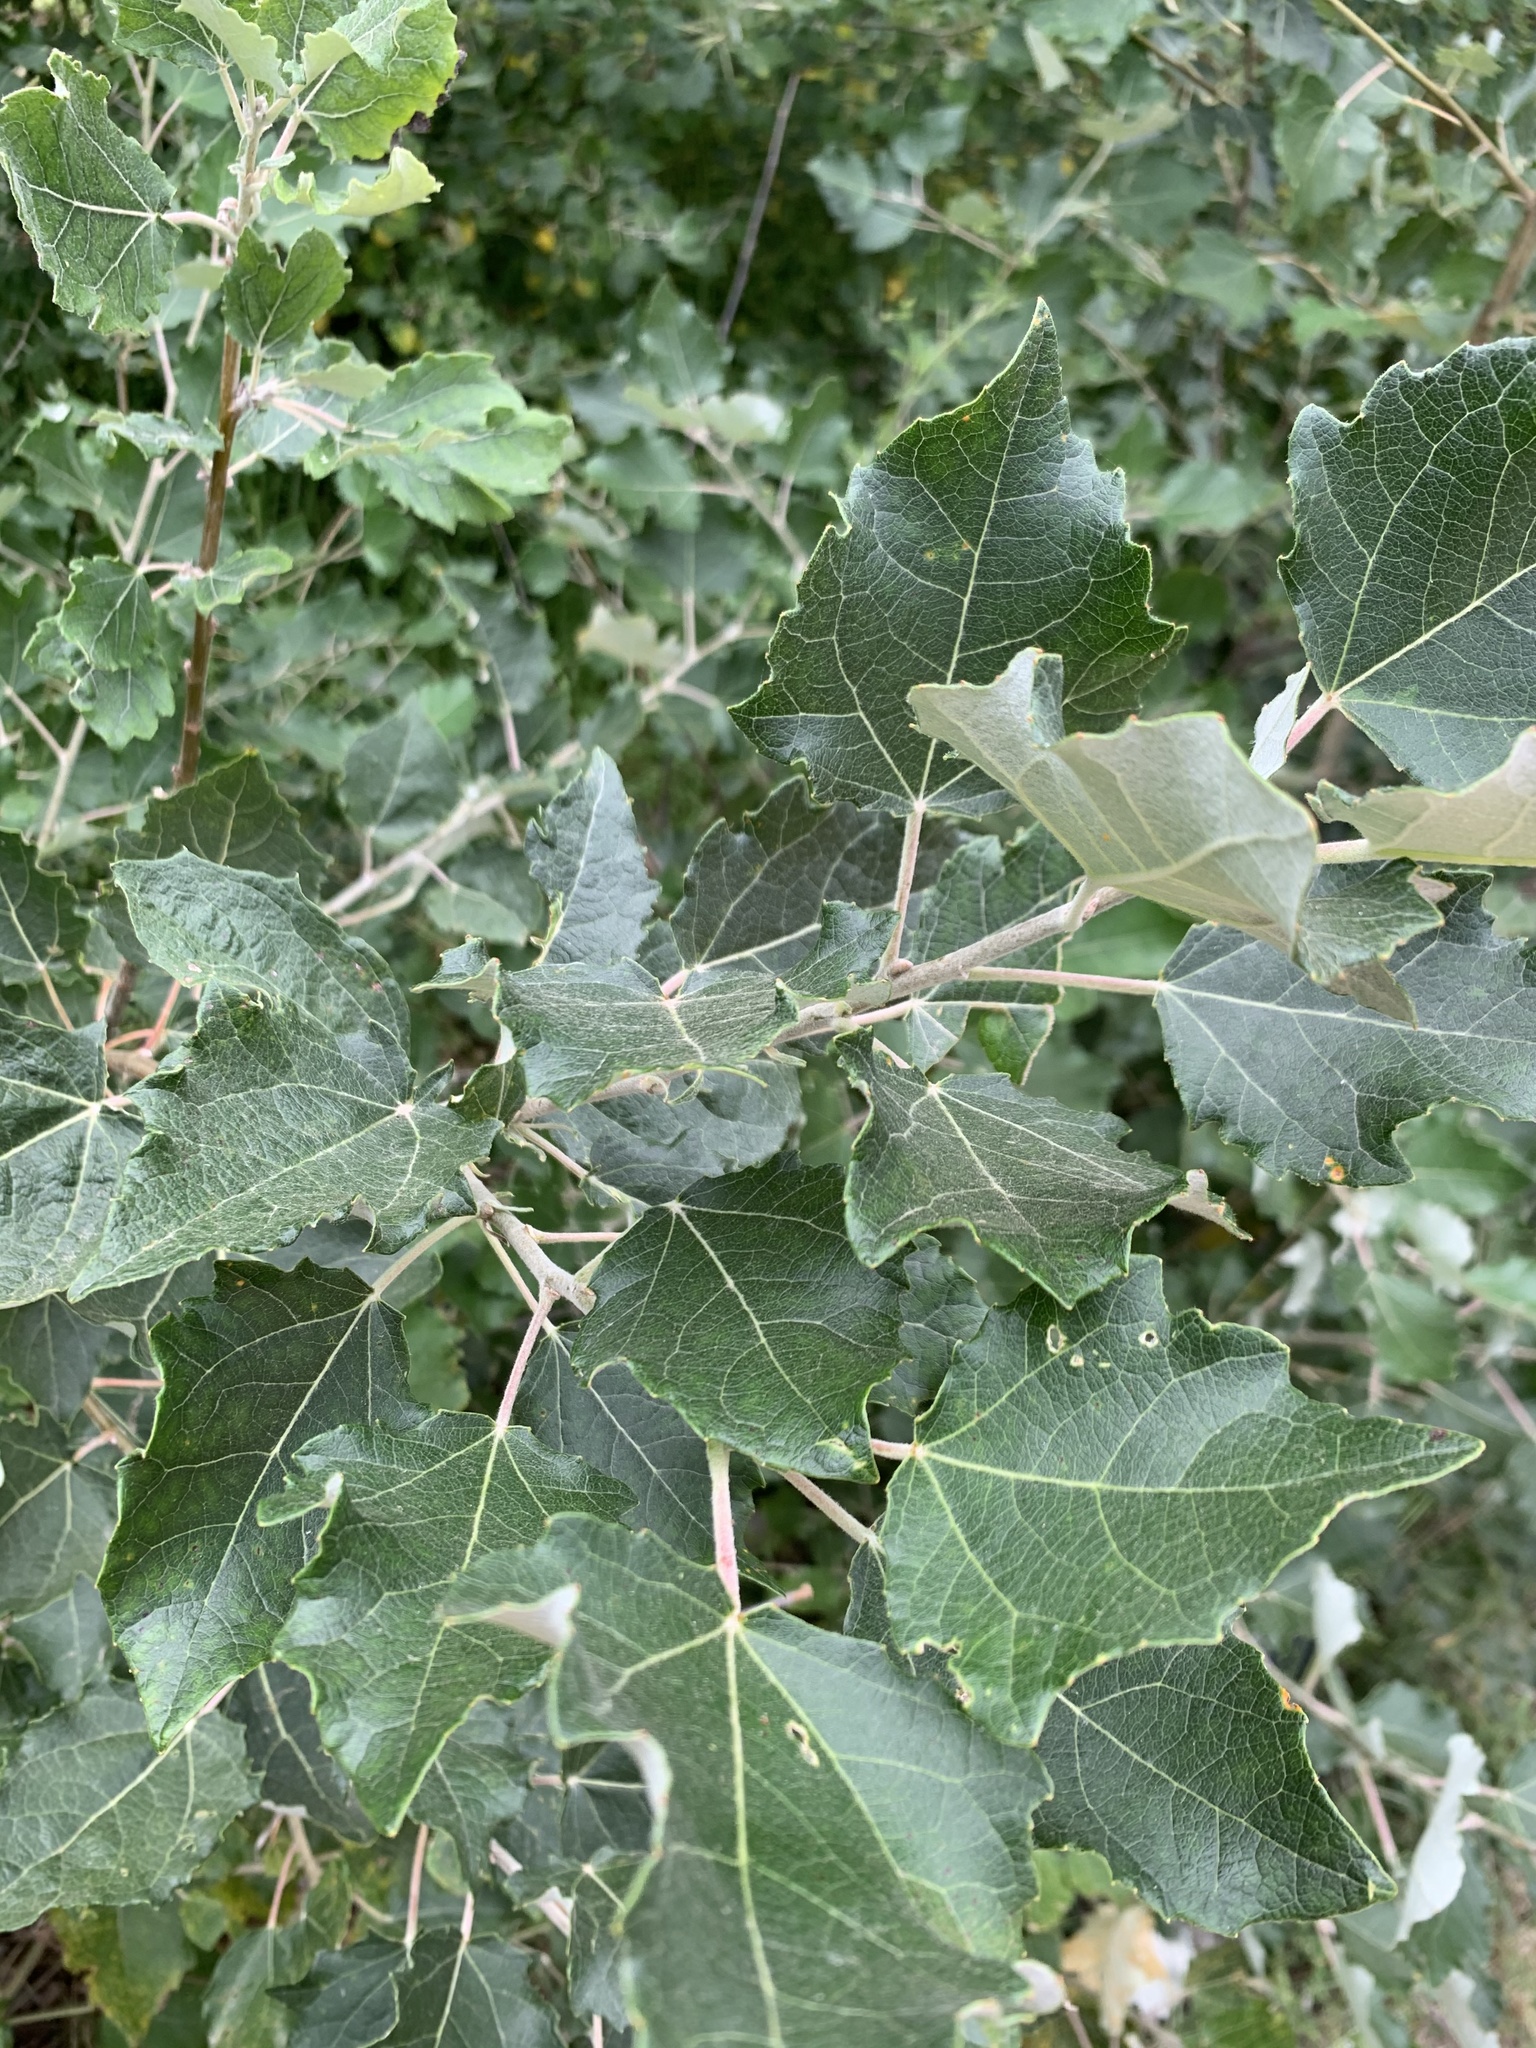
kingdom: Plantae
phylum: Tracheophyta
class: Magnoliopsida
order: Malpighiales
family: Salicaceae
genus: Populus
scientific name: Populus canescens
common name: Gray poplar
